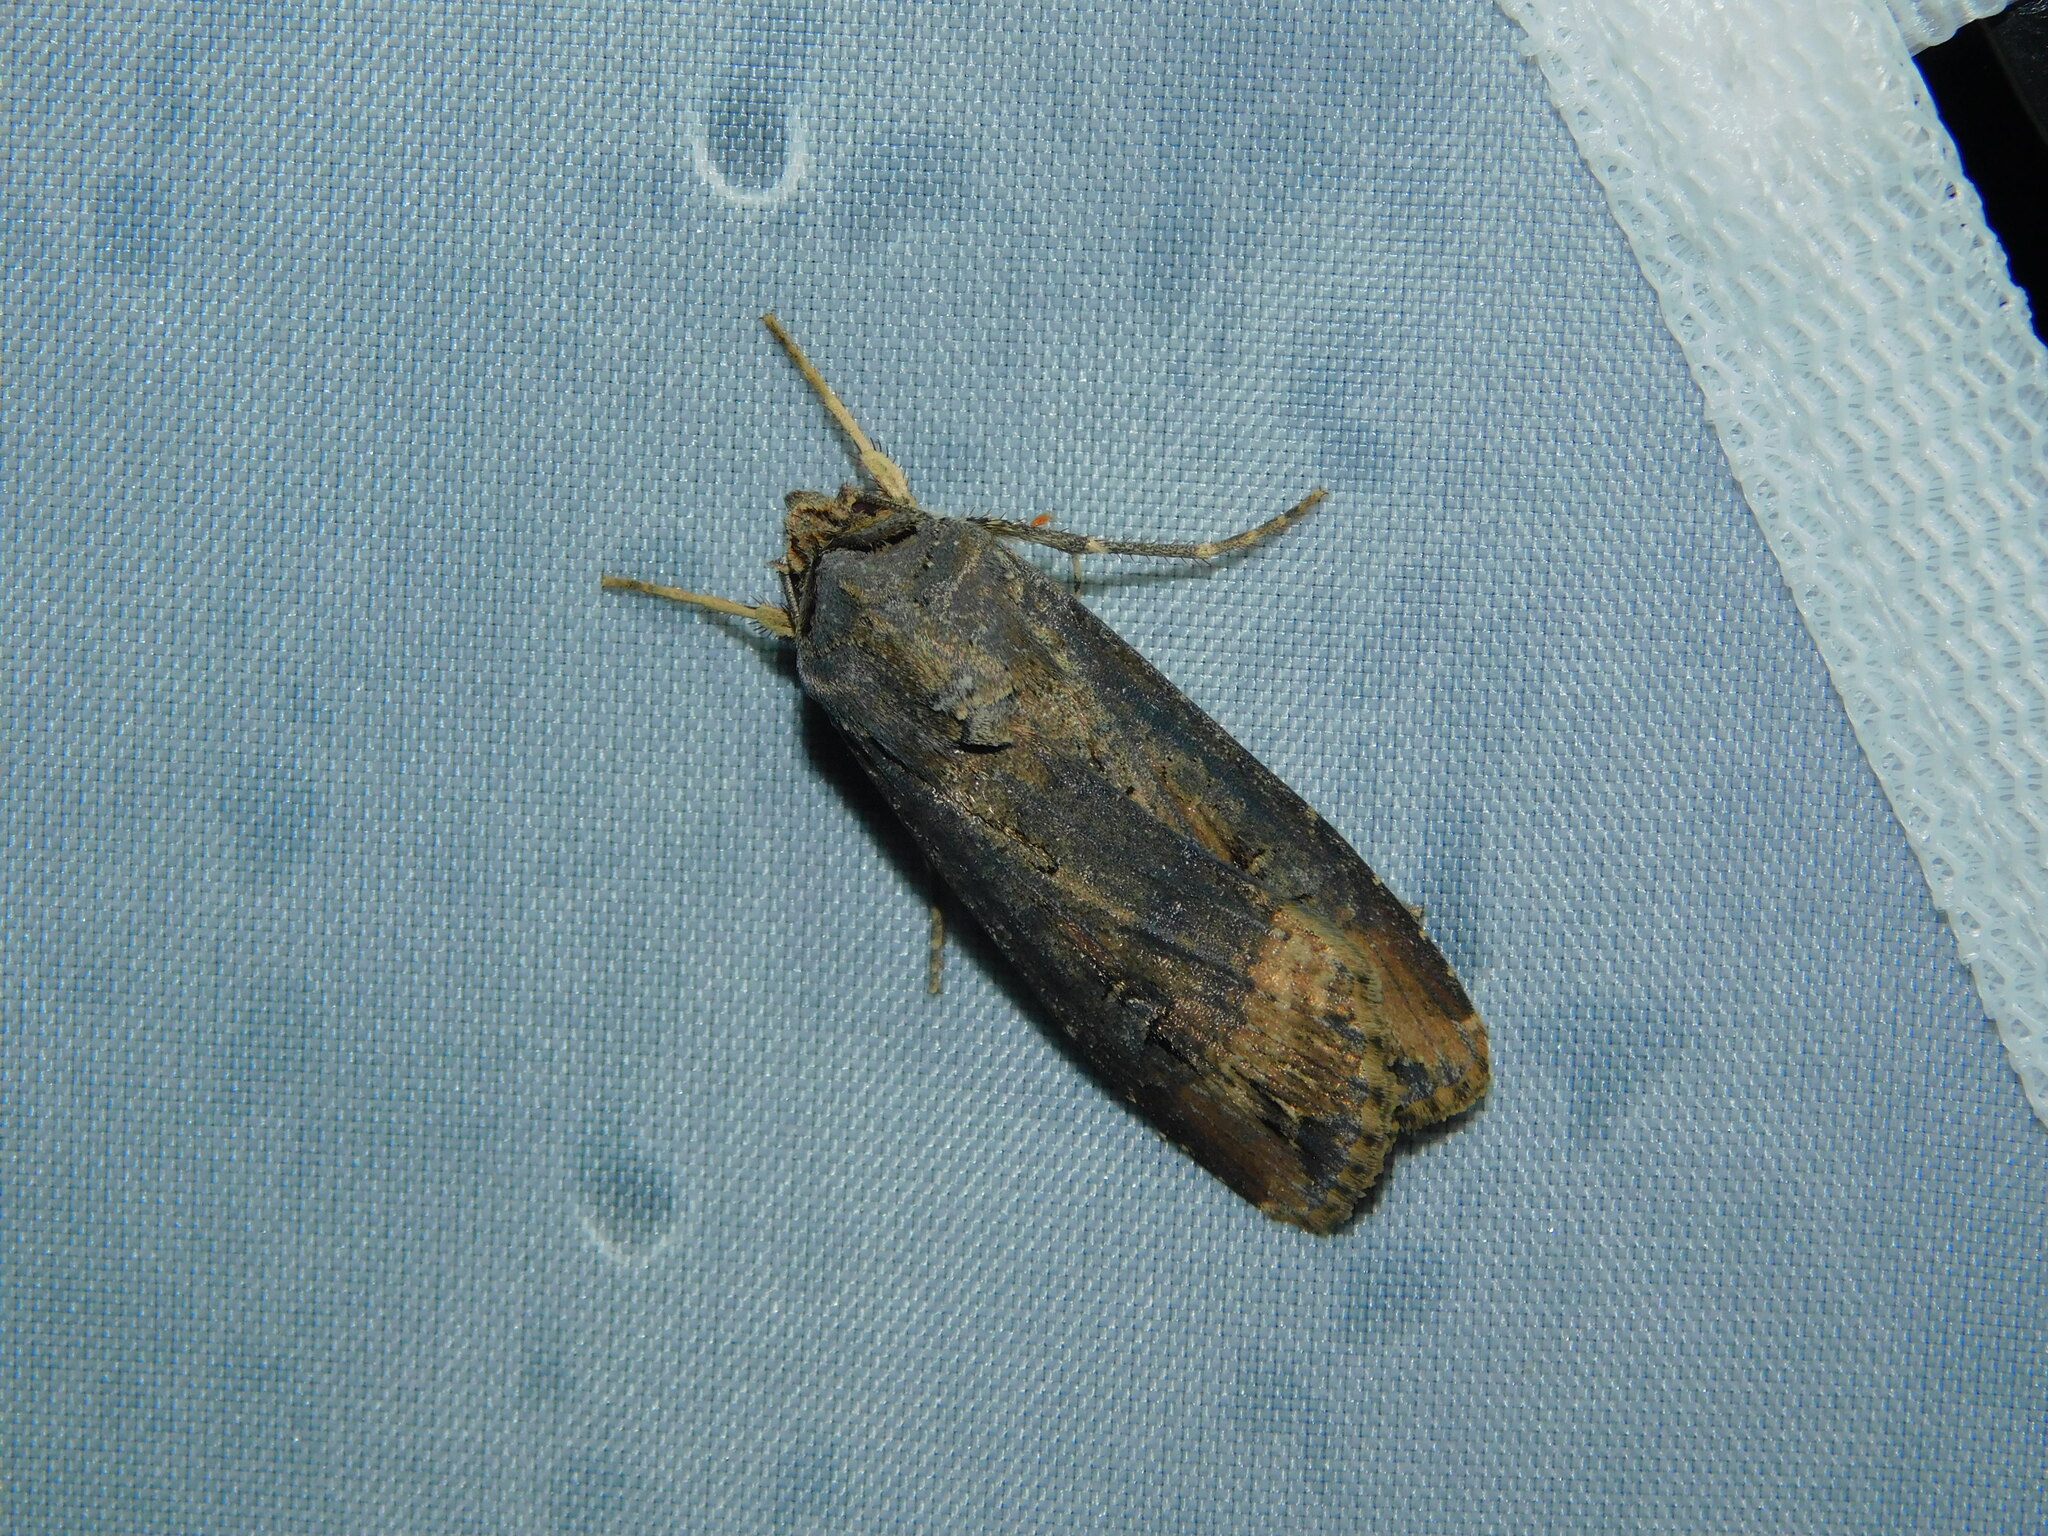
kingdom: Animalia
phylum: Arthropoda
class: Insecta
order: Lepidoptera
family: Noctuidae
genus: Agrotis
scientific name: Agrotis ipsilon
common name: Dark sword-grass
